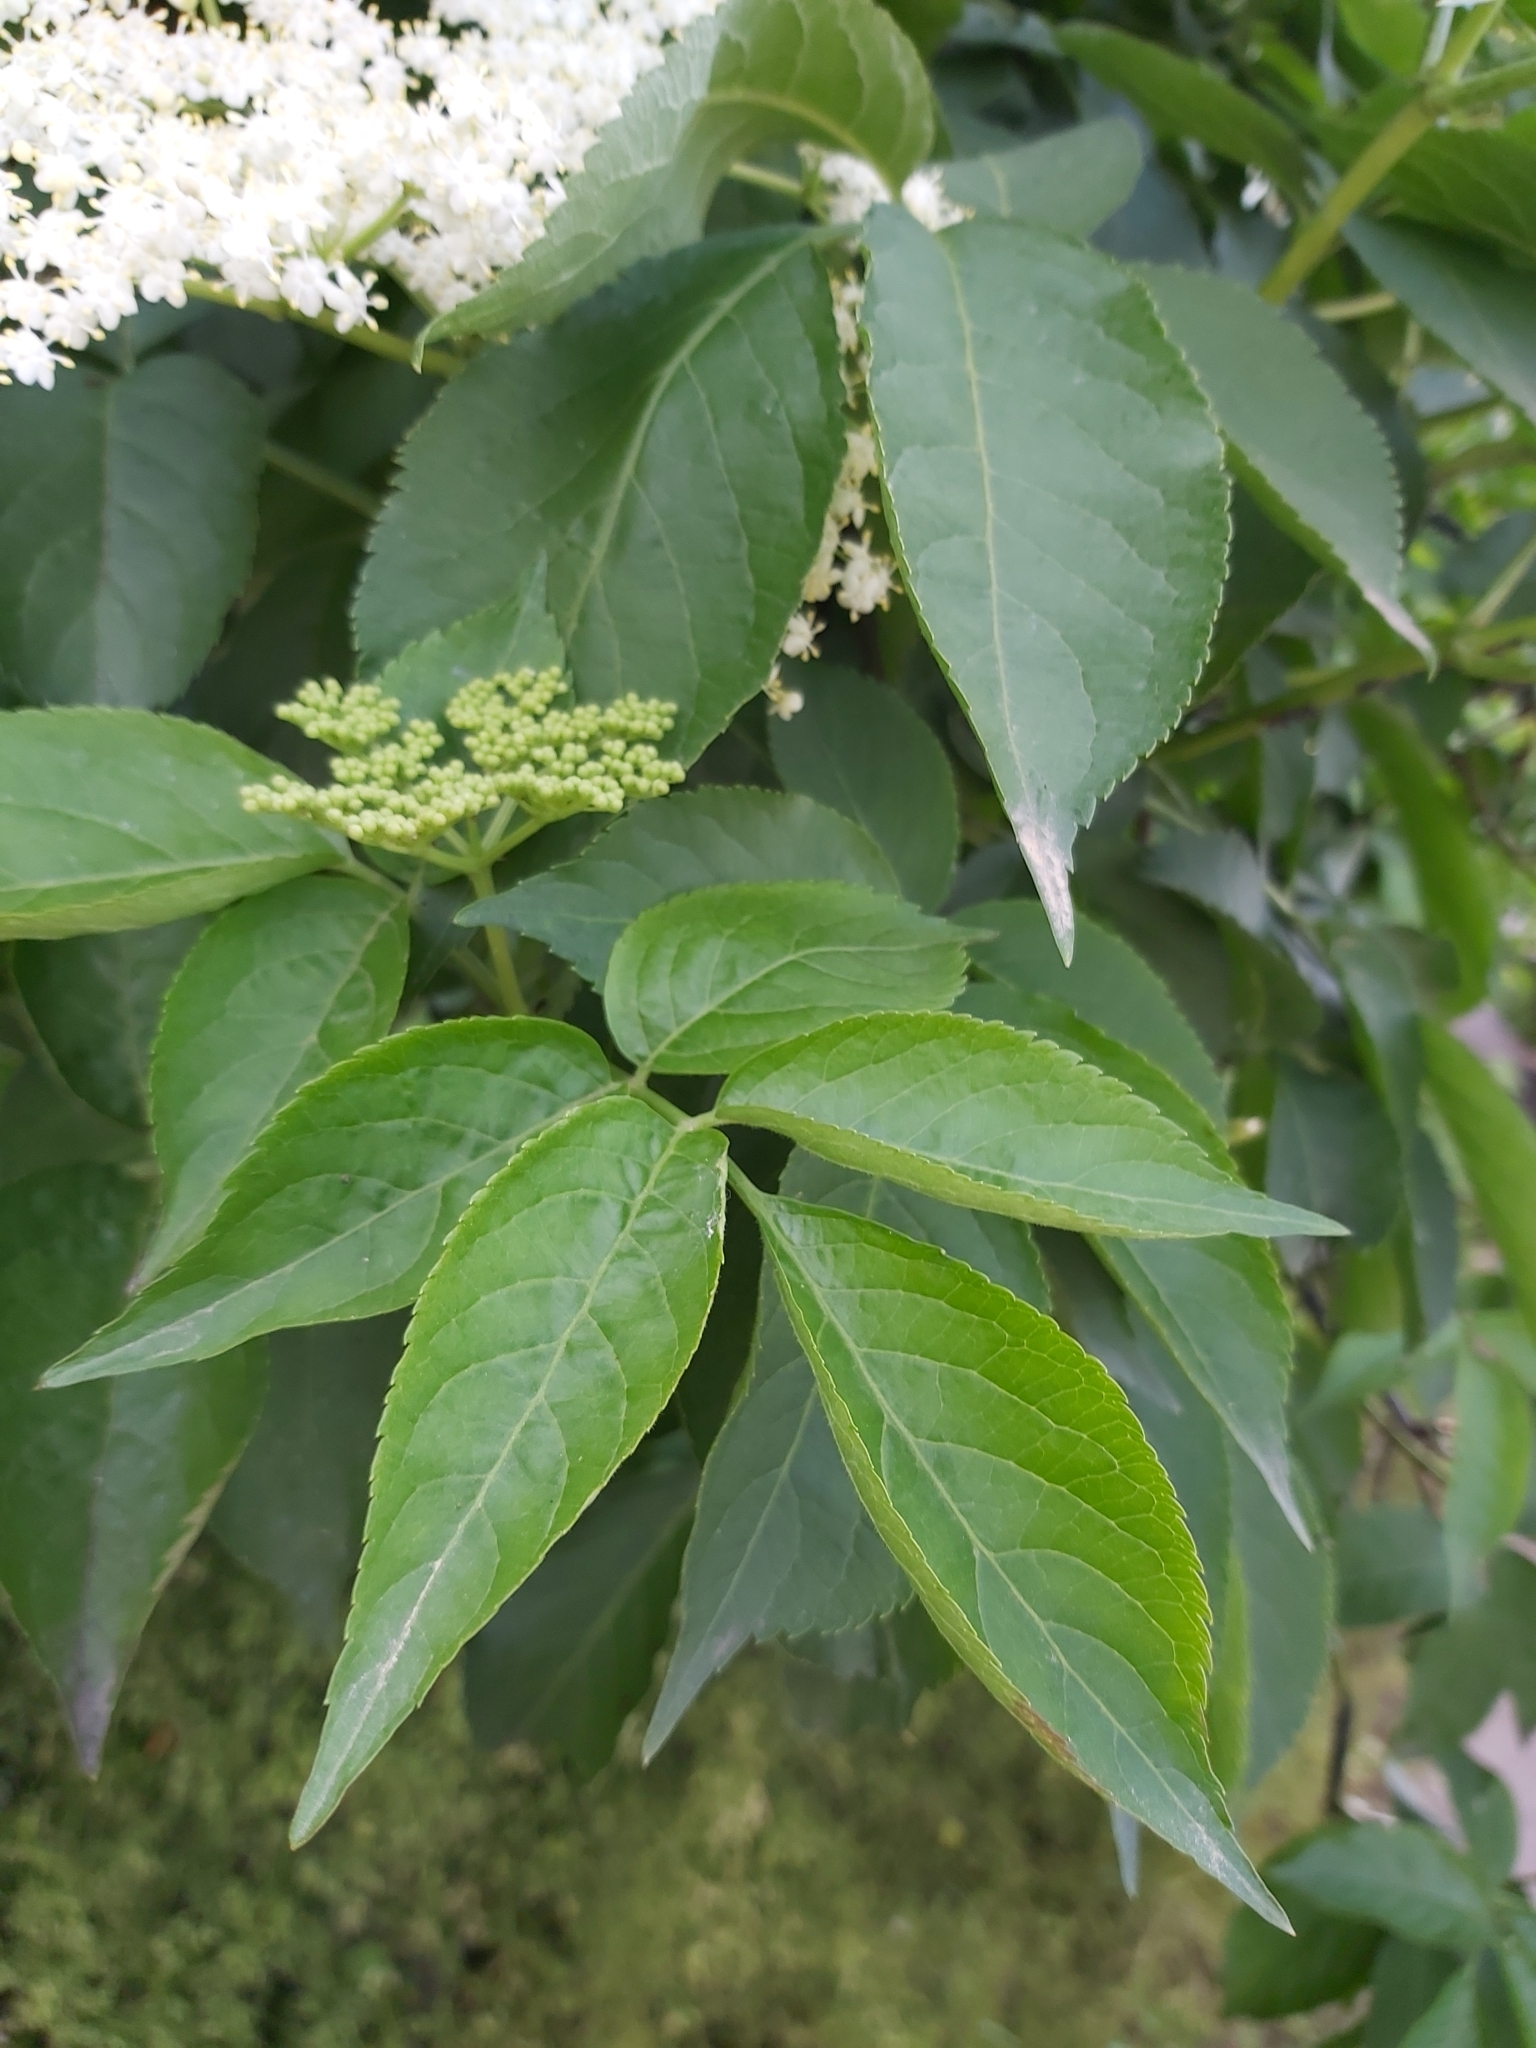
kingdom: Plantae
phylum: Tracheophyta
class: Magnoliopsida
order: Dipsacales
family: Viburnaceae
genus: Sambucus
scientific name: Sambucus nigra
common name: Elder
